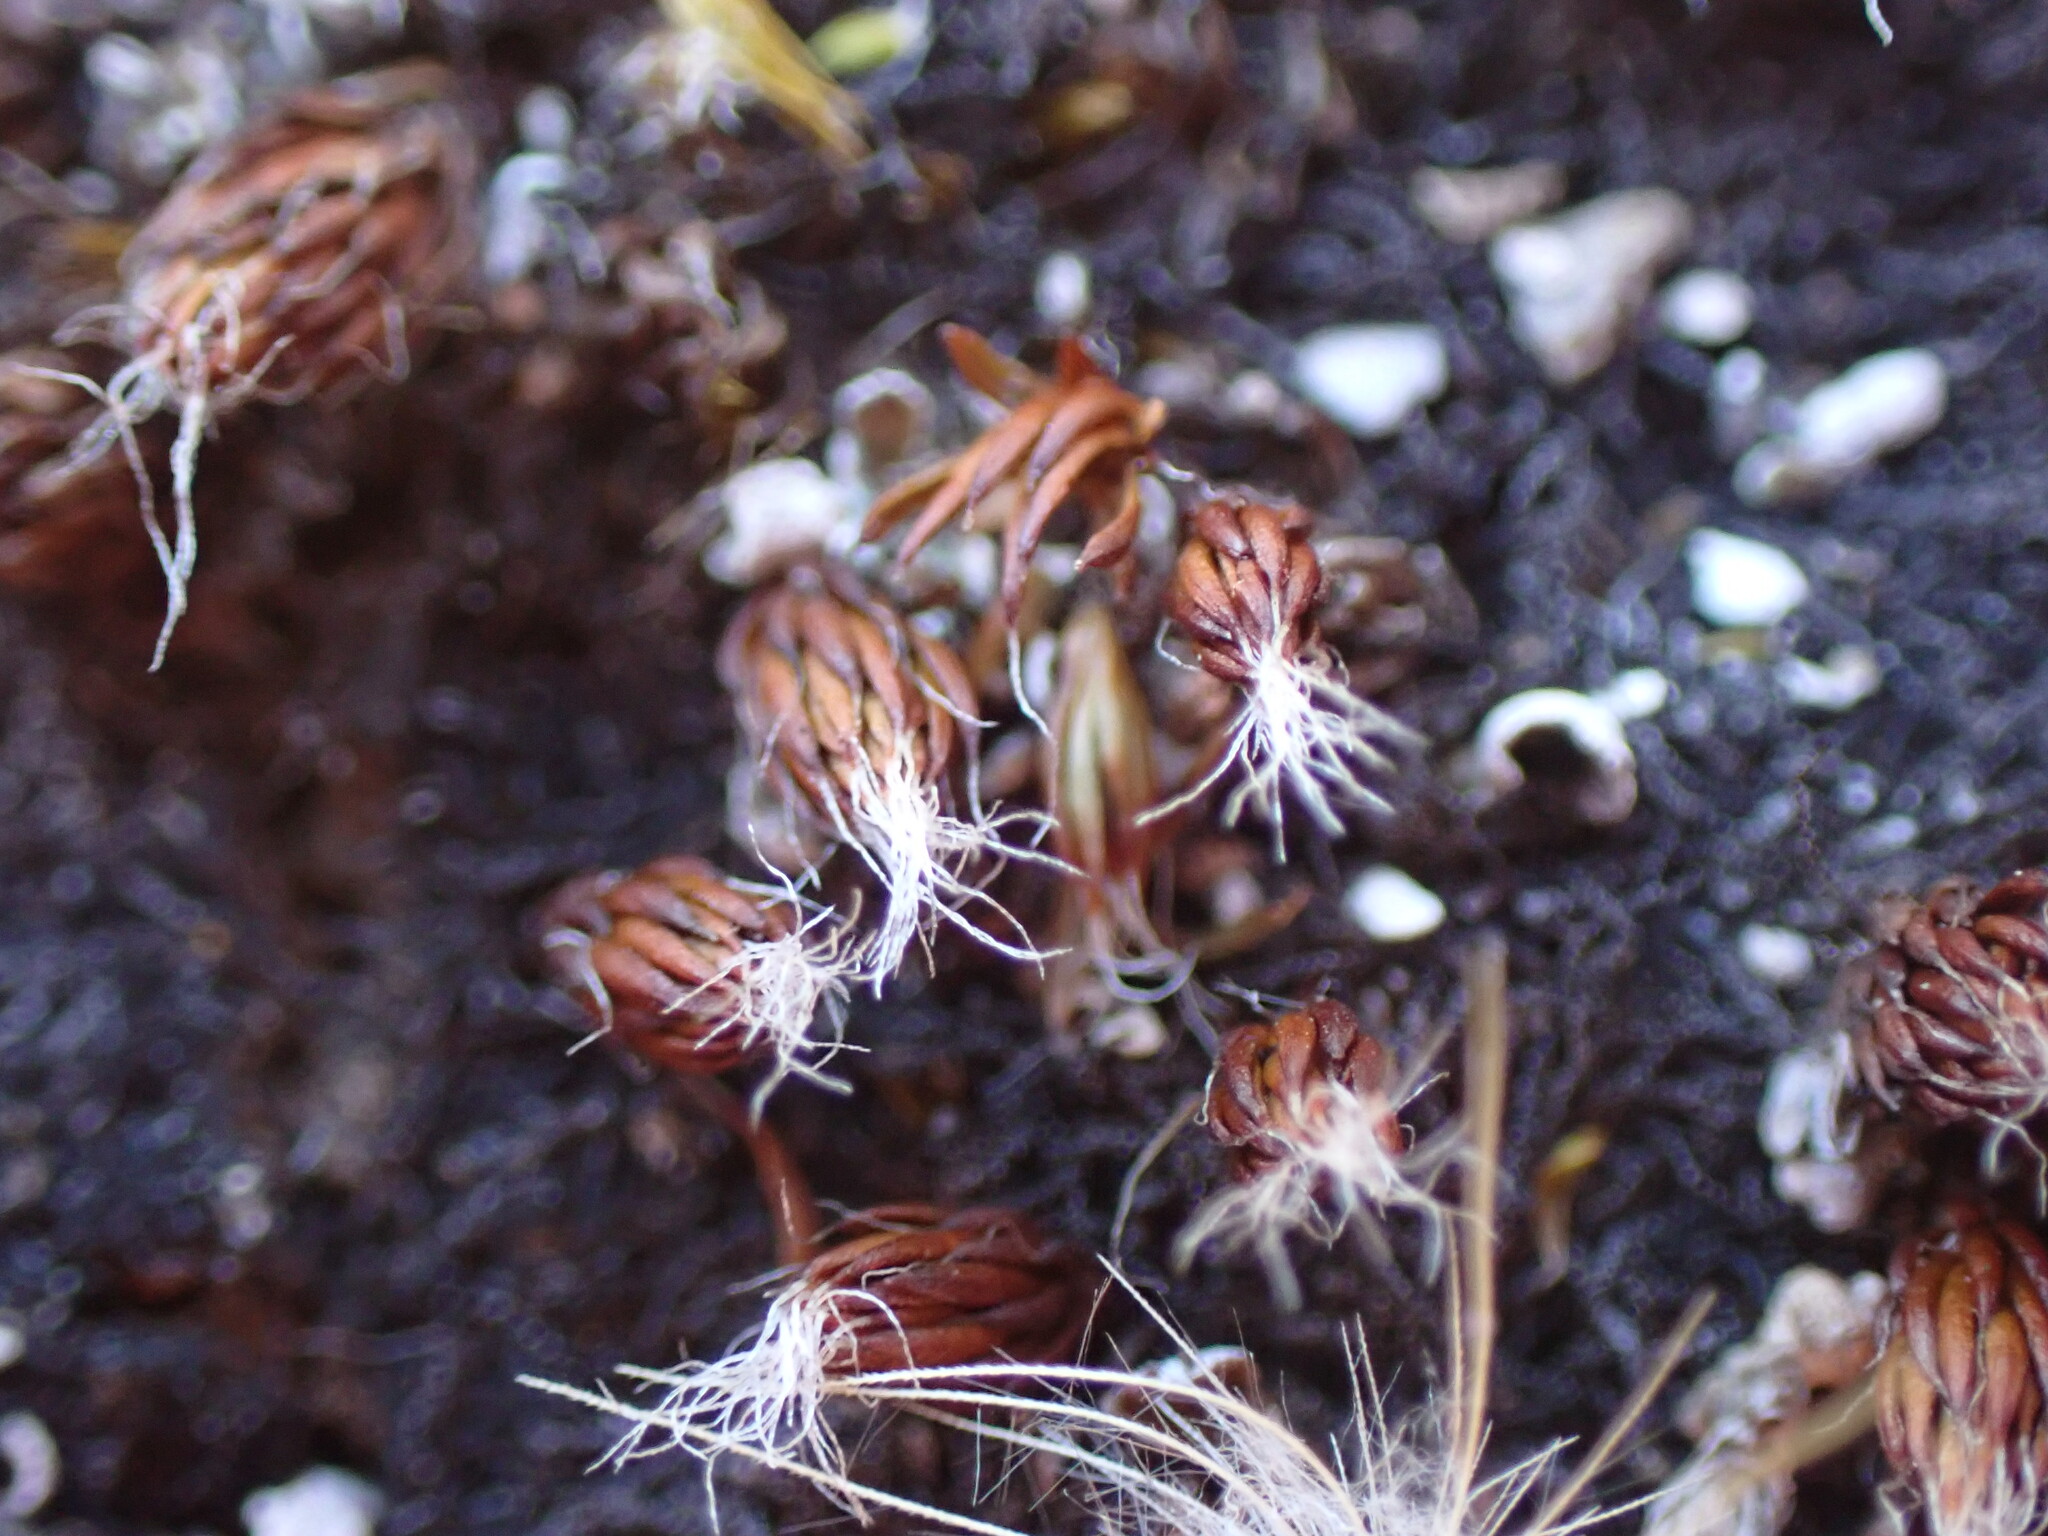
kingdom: Plantae
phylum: Bryophyta
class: Polytrichopsida
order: Polytrichales
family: Polytrichaceae
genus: Polytrichum
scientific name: Polytrichum piliferum
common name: Bristly haircap
